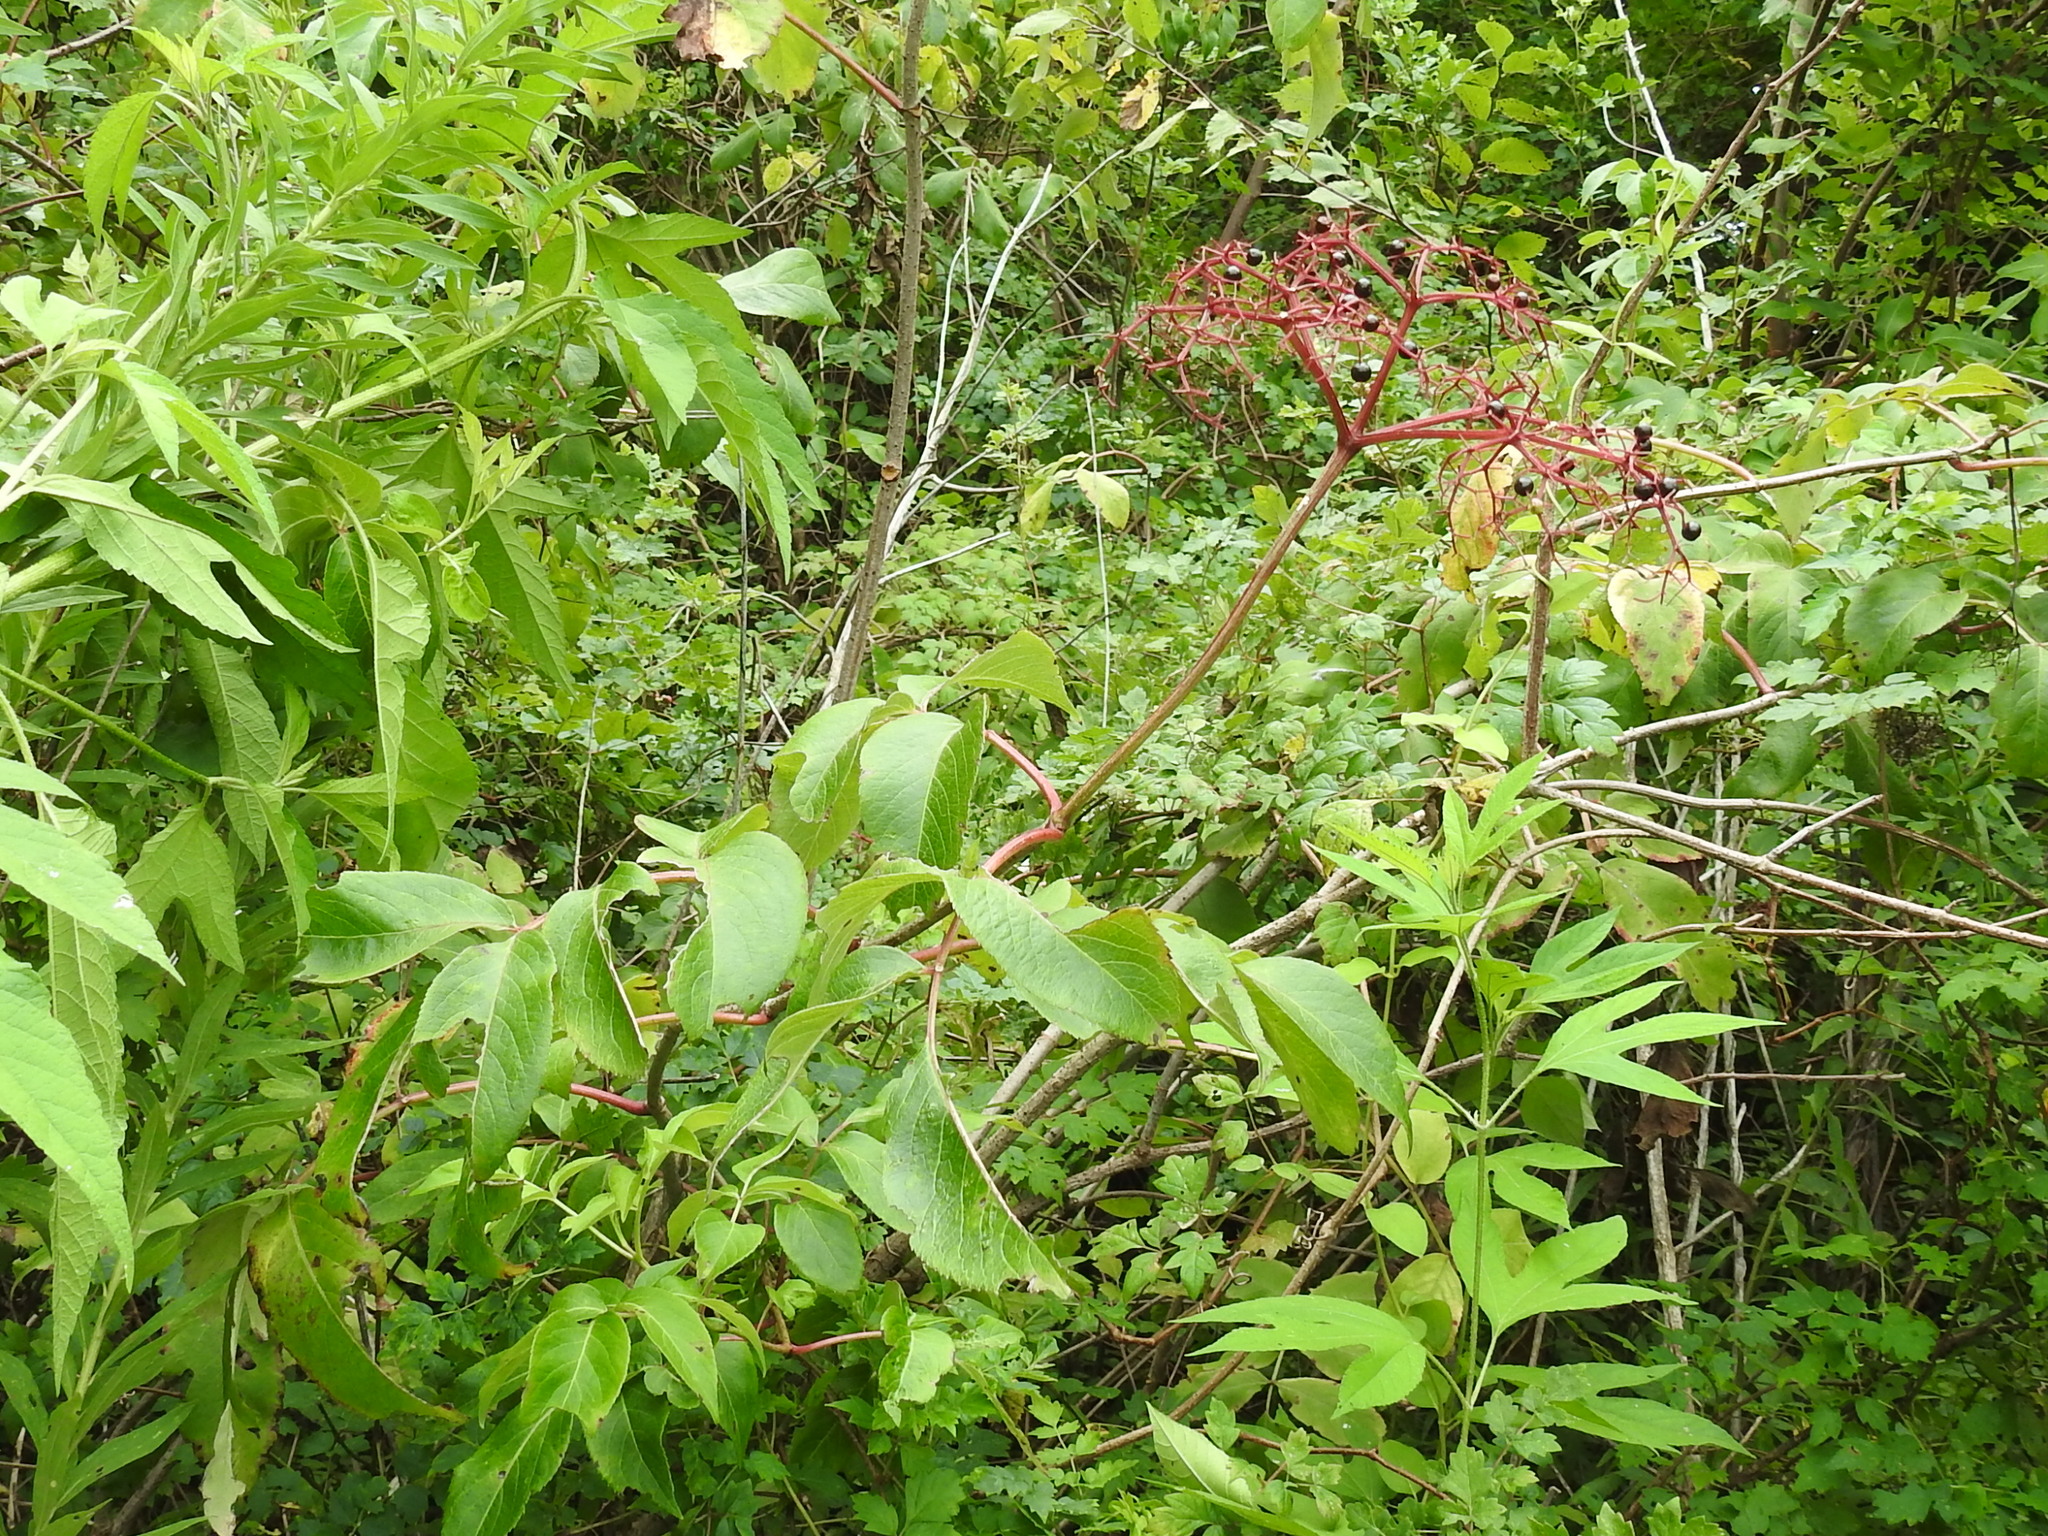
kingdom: Plantae
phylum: Tracheophyta
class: Magnoliopsida
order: Dipsacales
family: Viburnaceae
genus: Sambucus
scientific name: Sambucus canadensis
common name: American elder
